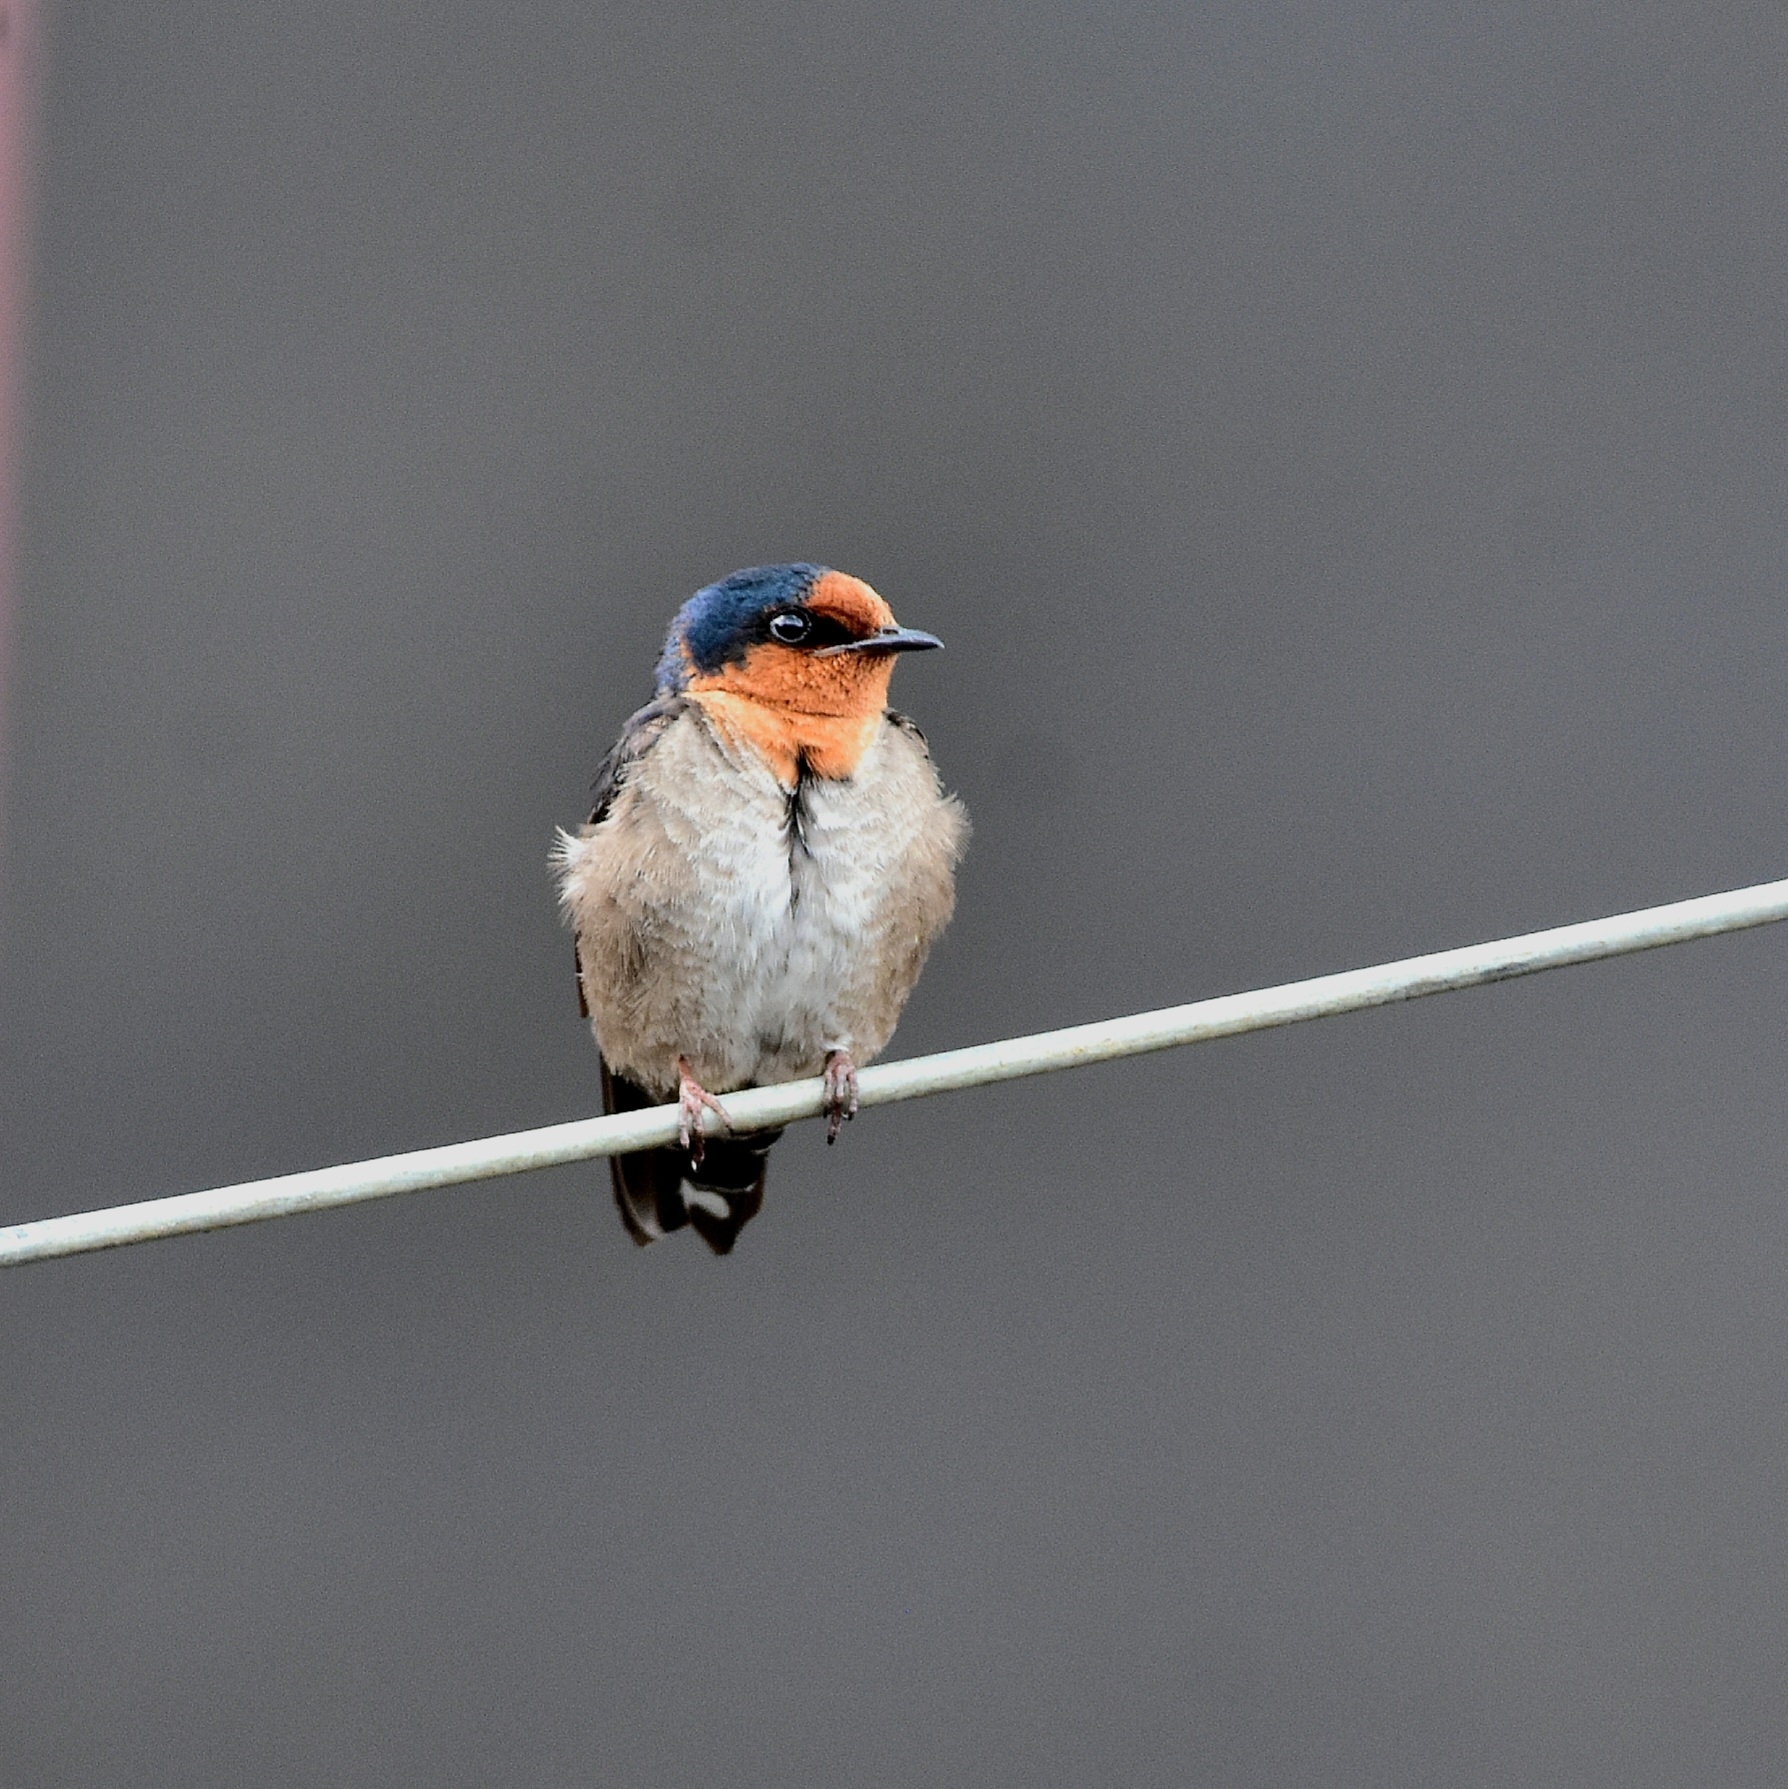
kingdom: Animalia
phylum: Chordata
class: Aves
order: Passeriformes
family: Hirundinidae
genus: Hirundo
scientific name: Hirundo domicola
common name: Hill swallow
